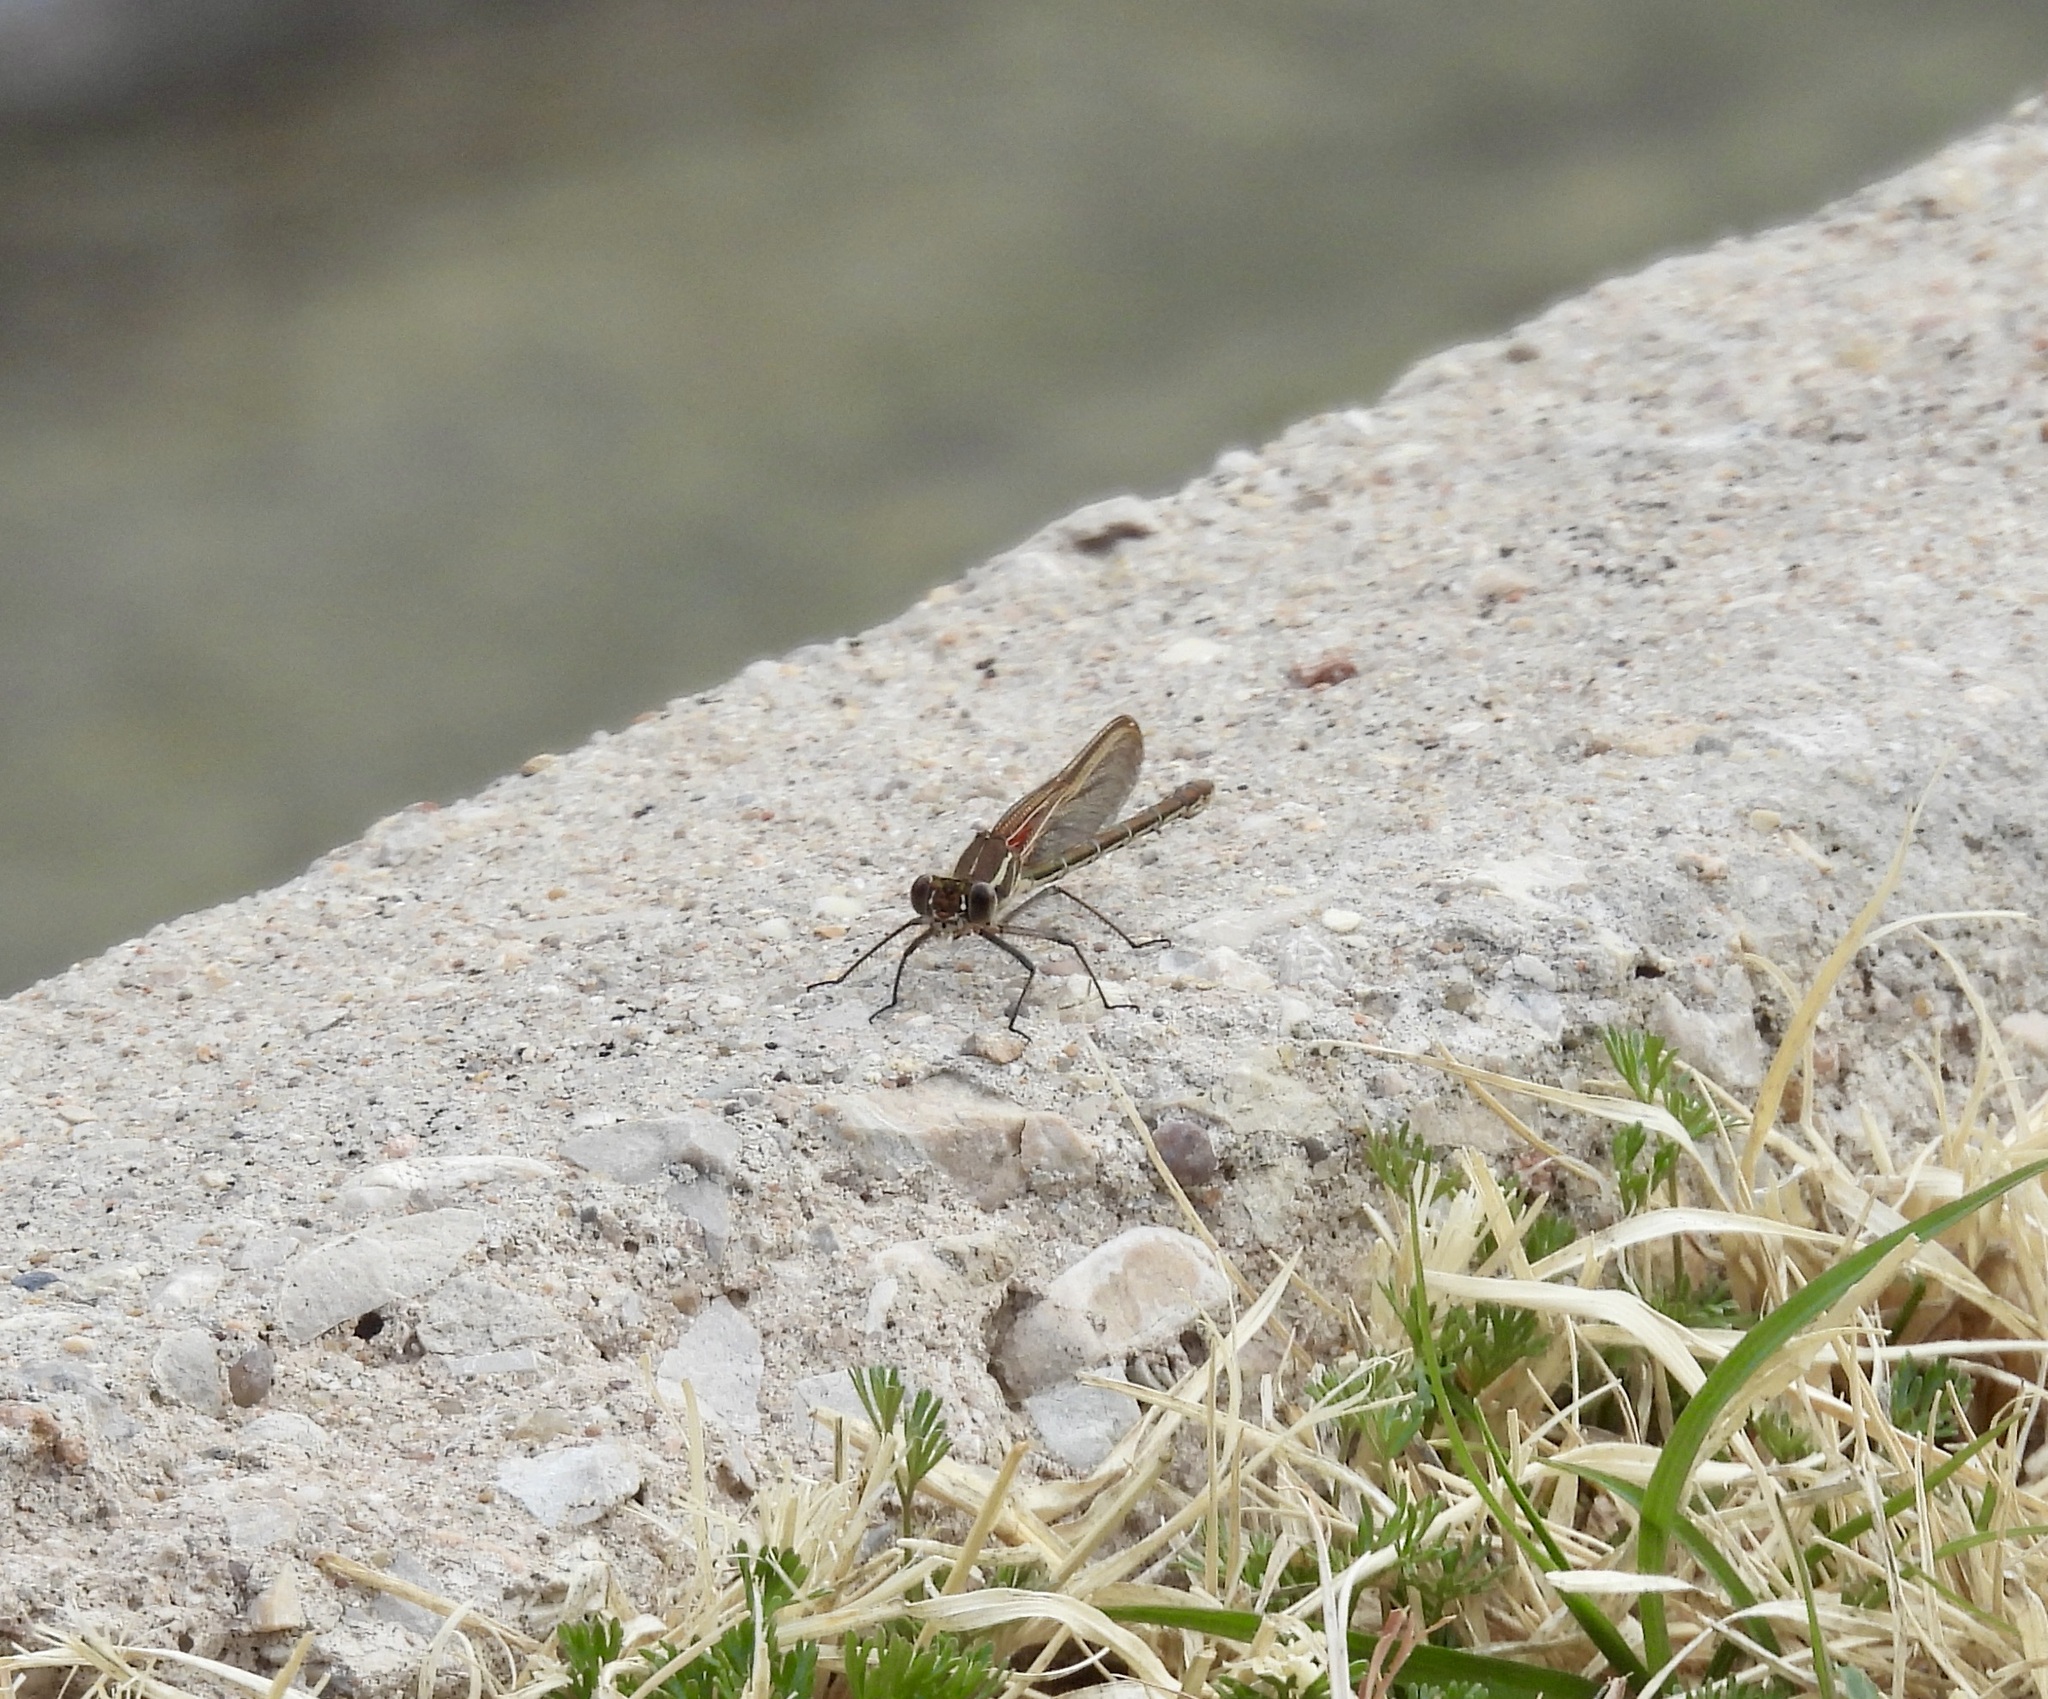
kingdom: Animalia
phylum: Arthropoda
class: Insecta
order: Odonata
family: Calopterygidae
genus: Hetaerina
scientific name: Hetaerina americana
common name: American rubyspot
